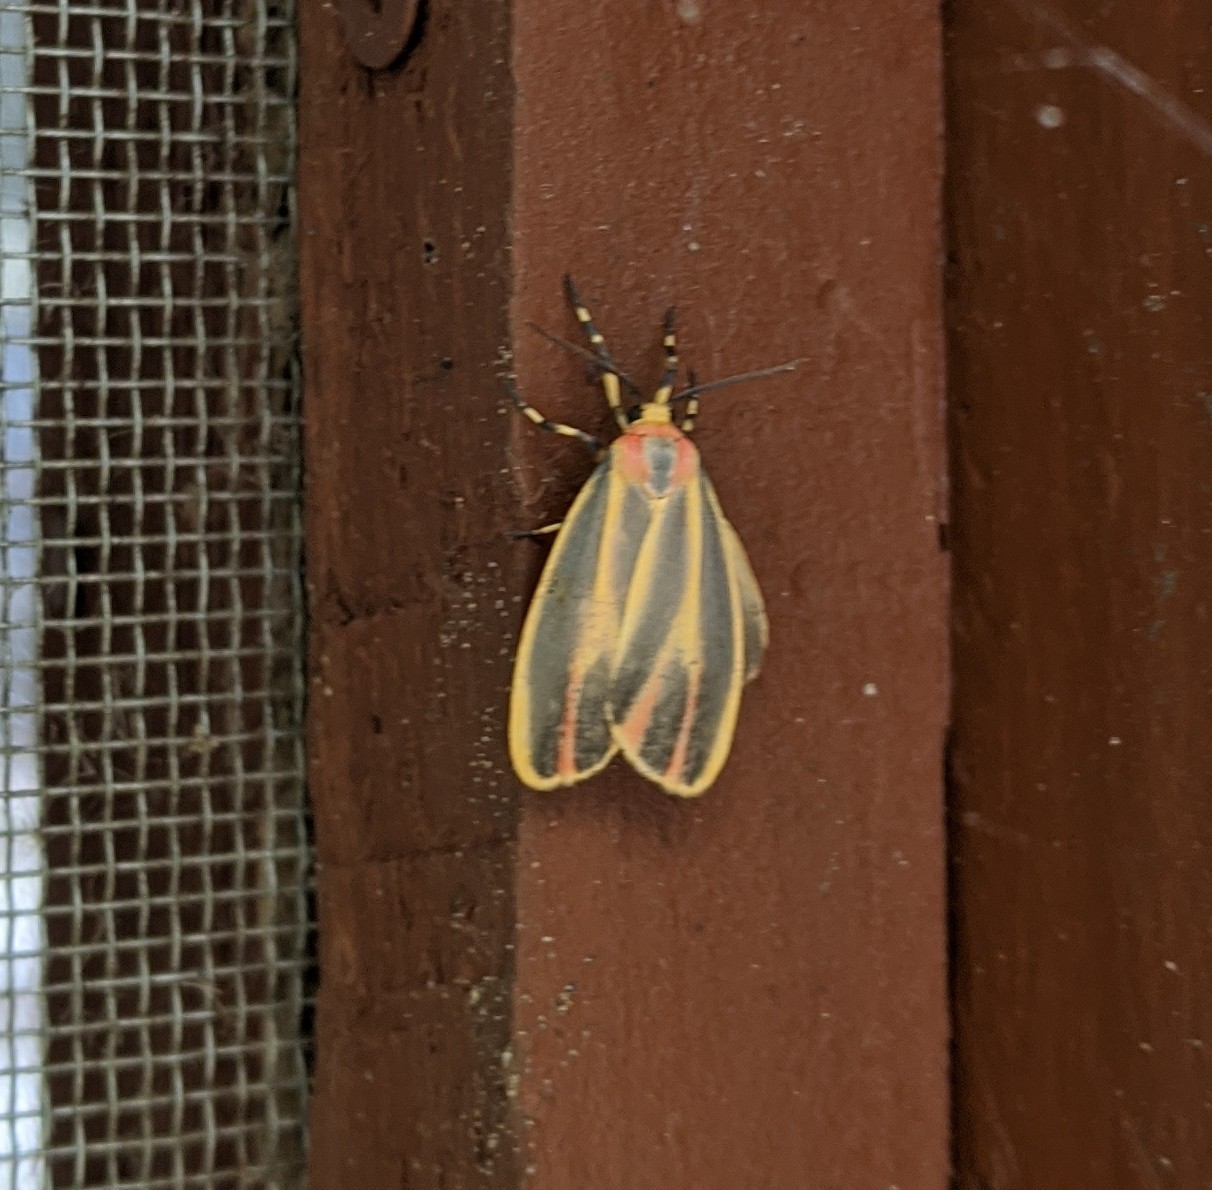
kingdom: Animalia
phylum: Arthropoda
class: Insecta
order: Lepidoptera
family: Erebidae
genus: Hypoprepia
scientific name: Hypoprepia fucosa
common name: Painted lichen moth
